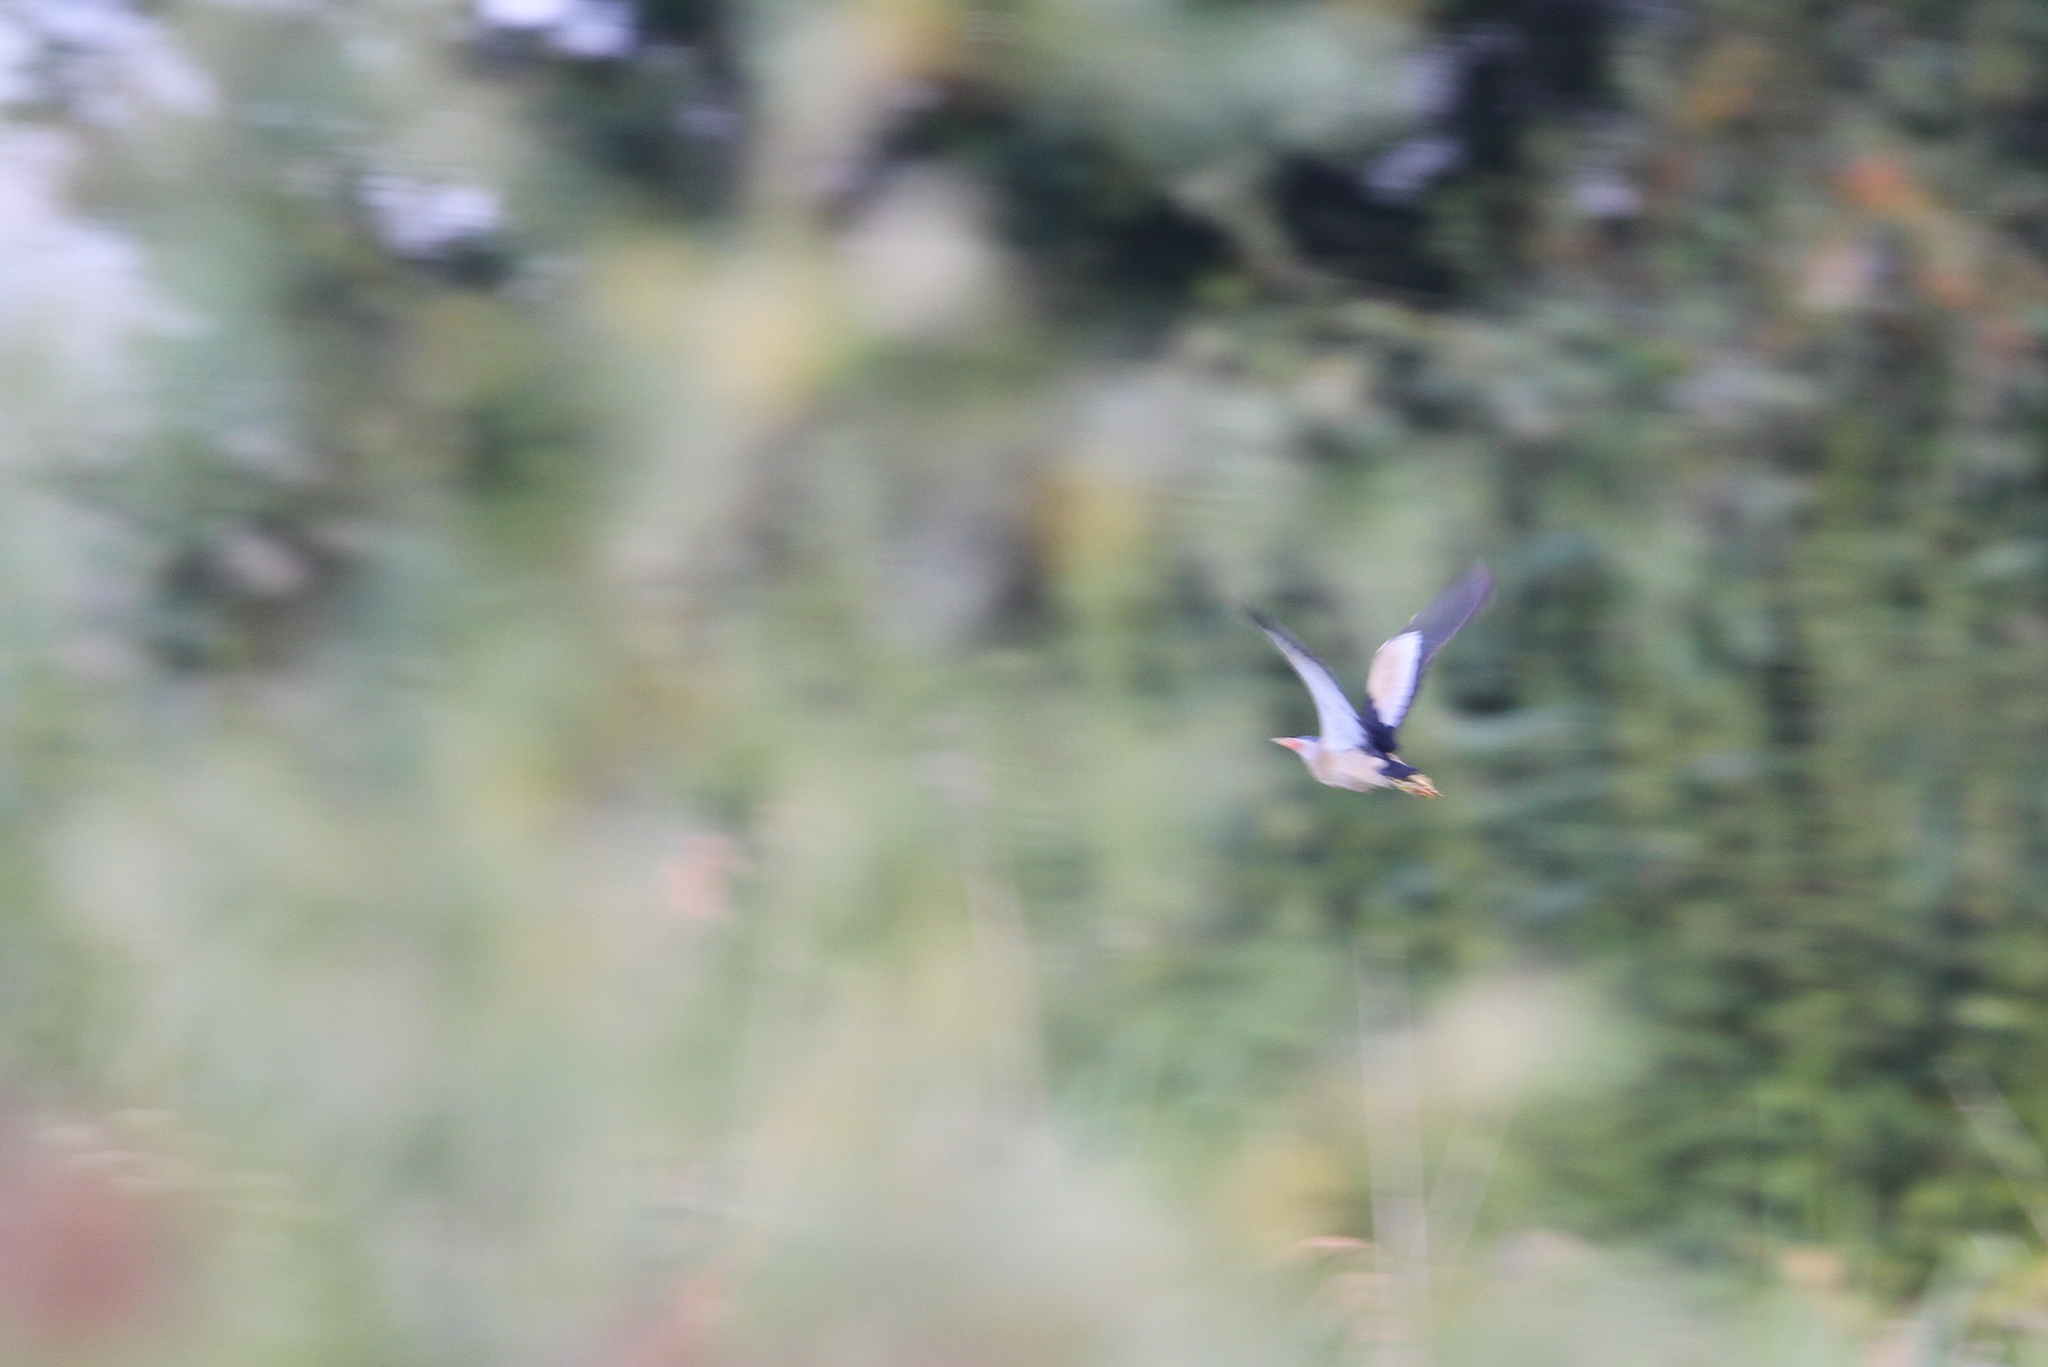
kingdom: Animalia
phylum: Chordata
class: Aves
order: Pelecaniformes
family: Ardeidae
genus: Ixobrychus
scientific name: Ixobrychus minutus
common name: Little bittern
